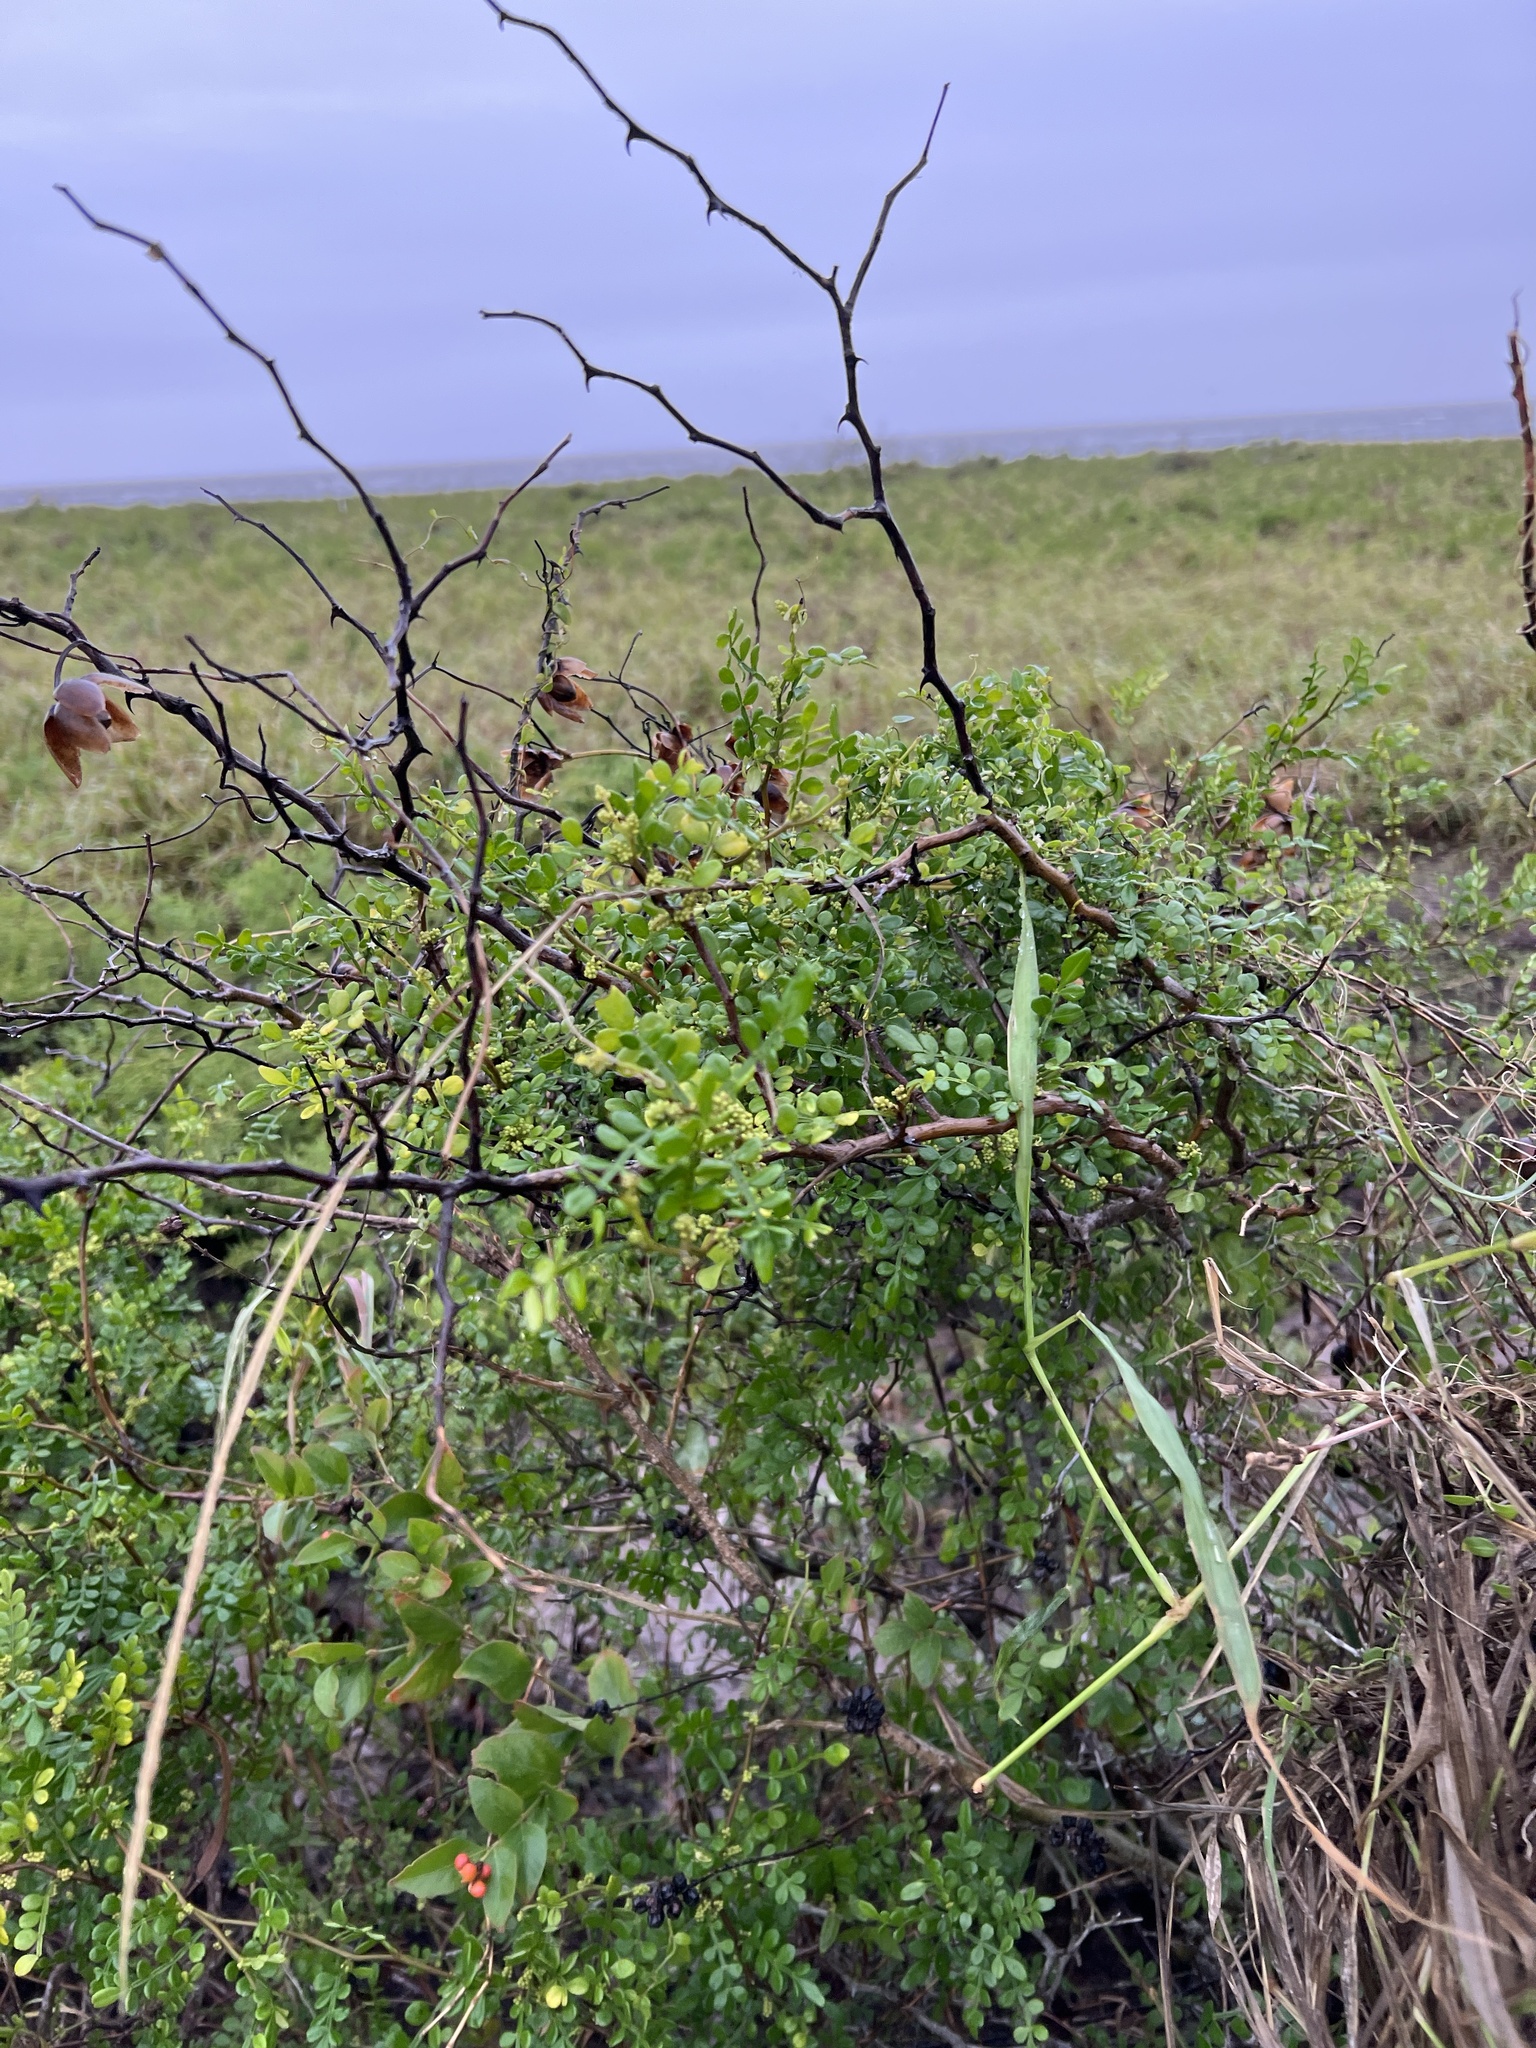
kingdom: Plantae
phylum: Tracheophyta
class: Magnoliopsida
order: Sapindales
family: Rutaceae
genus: Zanthoxylum
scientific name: Zanthoxylum fagara
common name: Lime prickly-ash
